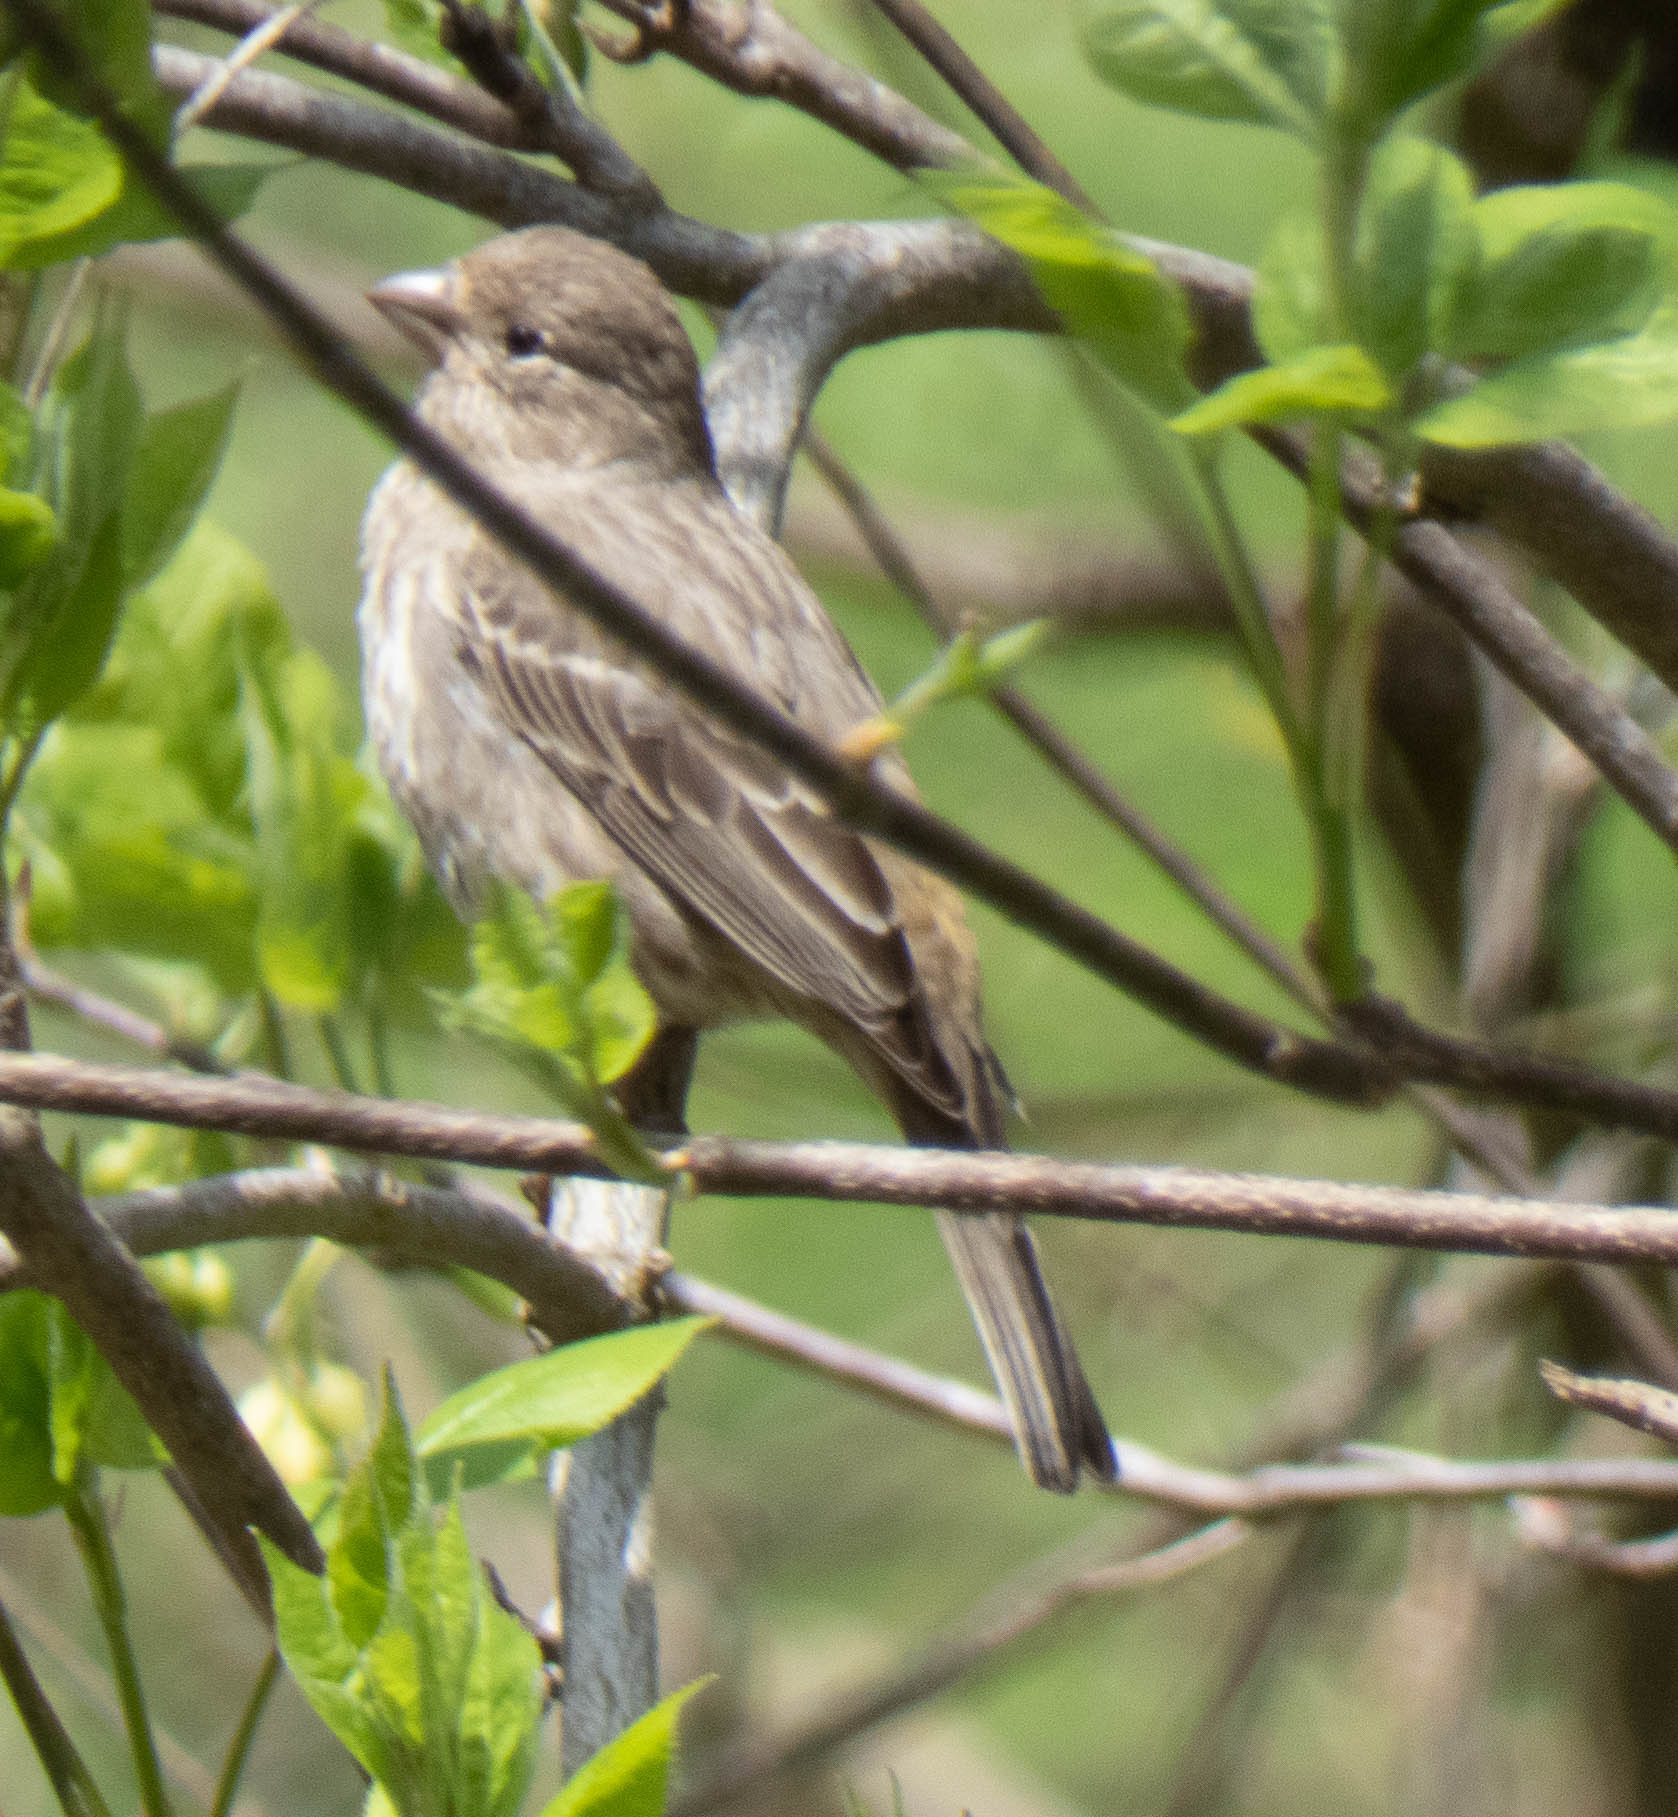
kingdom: Animalia
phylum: Chordata
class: Aves
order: Passeriformes
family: Fringillidae
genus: Haemorhous
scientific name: Haemorhous mexicanus
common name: House finch
